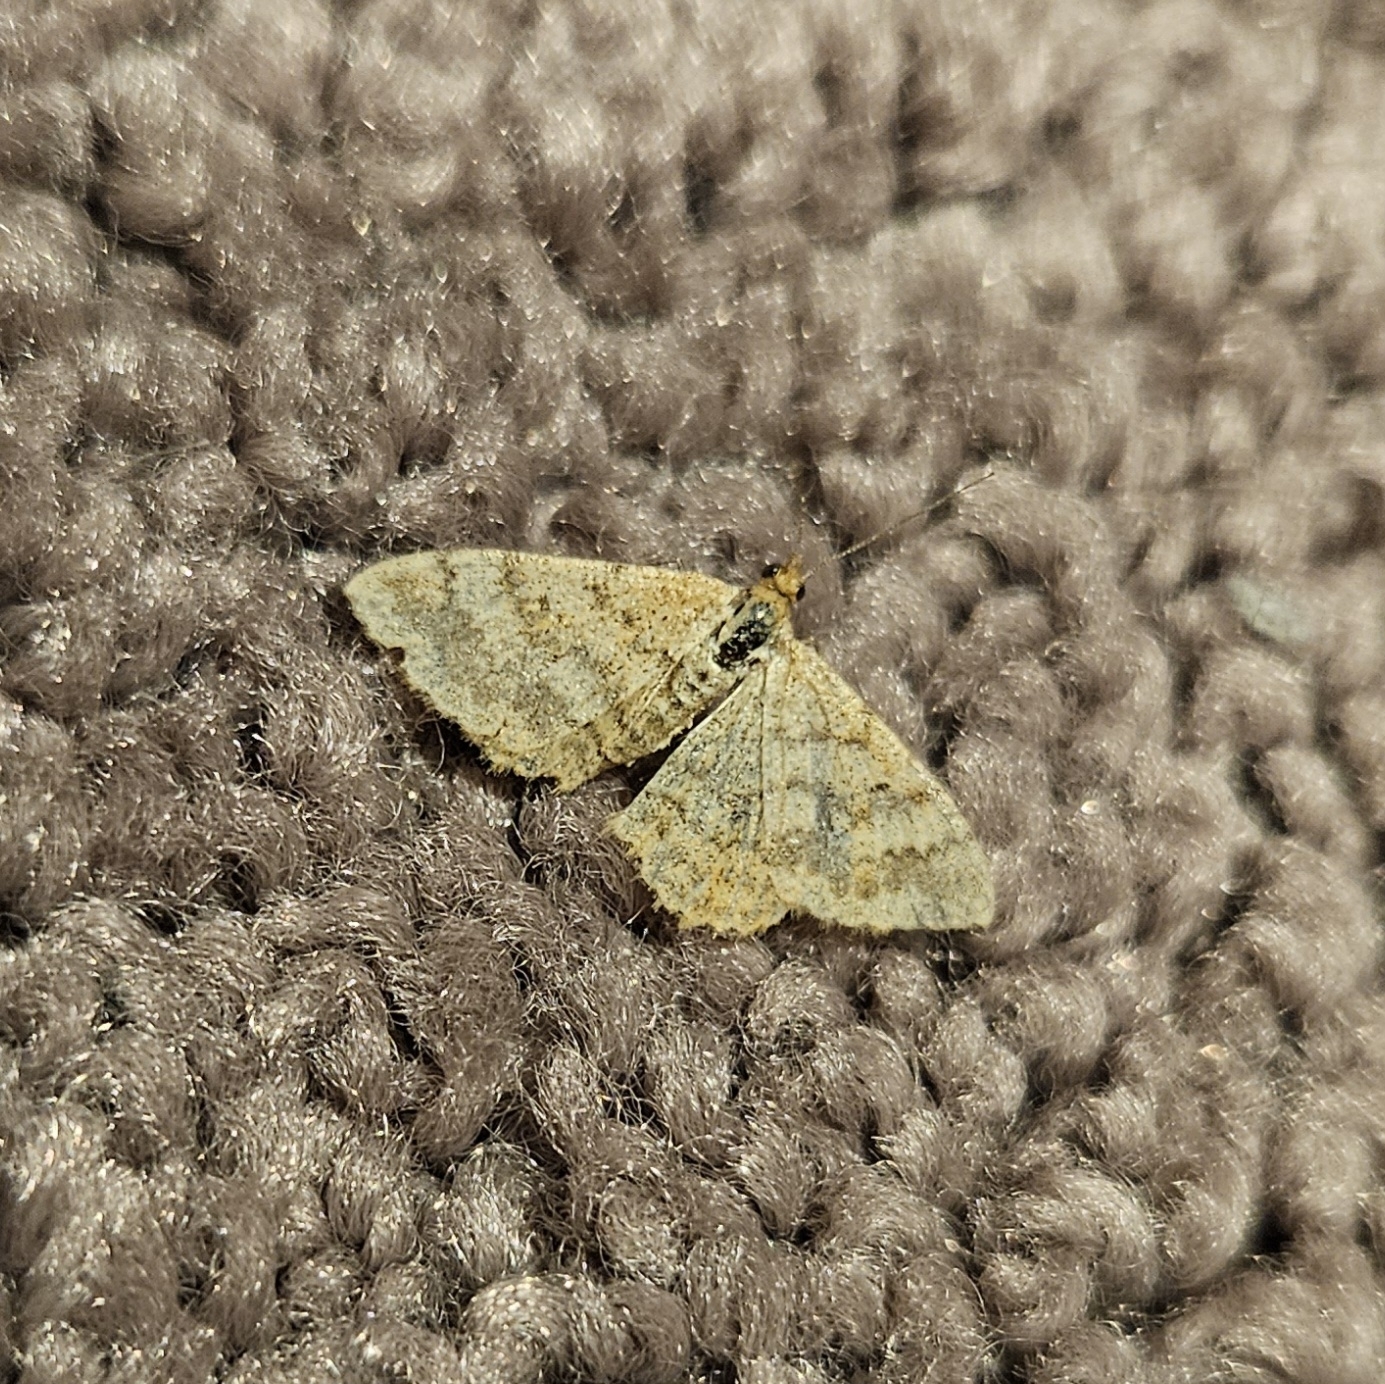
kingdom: Animalia
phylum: Arthropoda
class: Insecta
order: Lepidoptera
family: Geometridae
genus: Scopula
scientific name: Scopula rubraria
